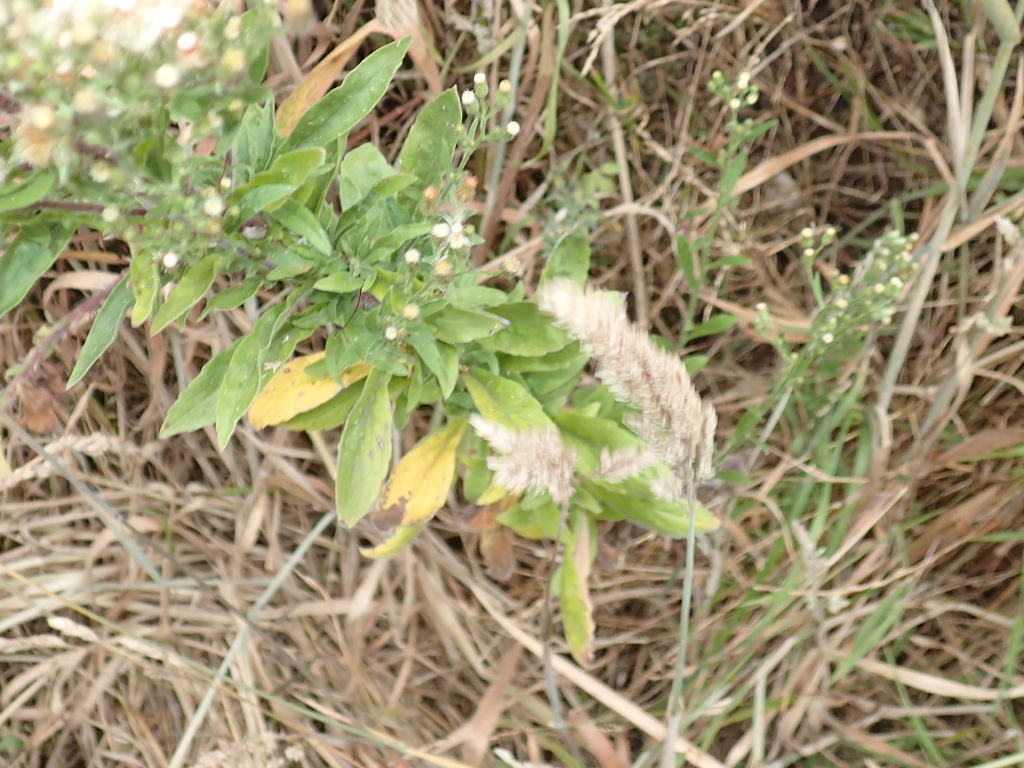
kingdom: Plantae
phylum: Tracheophyta
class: Magnoliopsida
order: Asterales
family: Asteraceae
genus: Erigeron
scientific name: Erigeron sumatrensis
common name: Daisy
